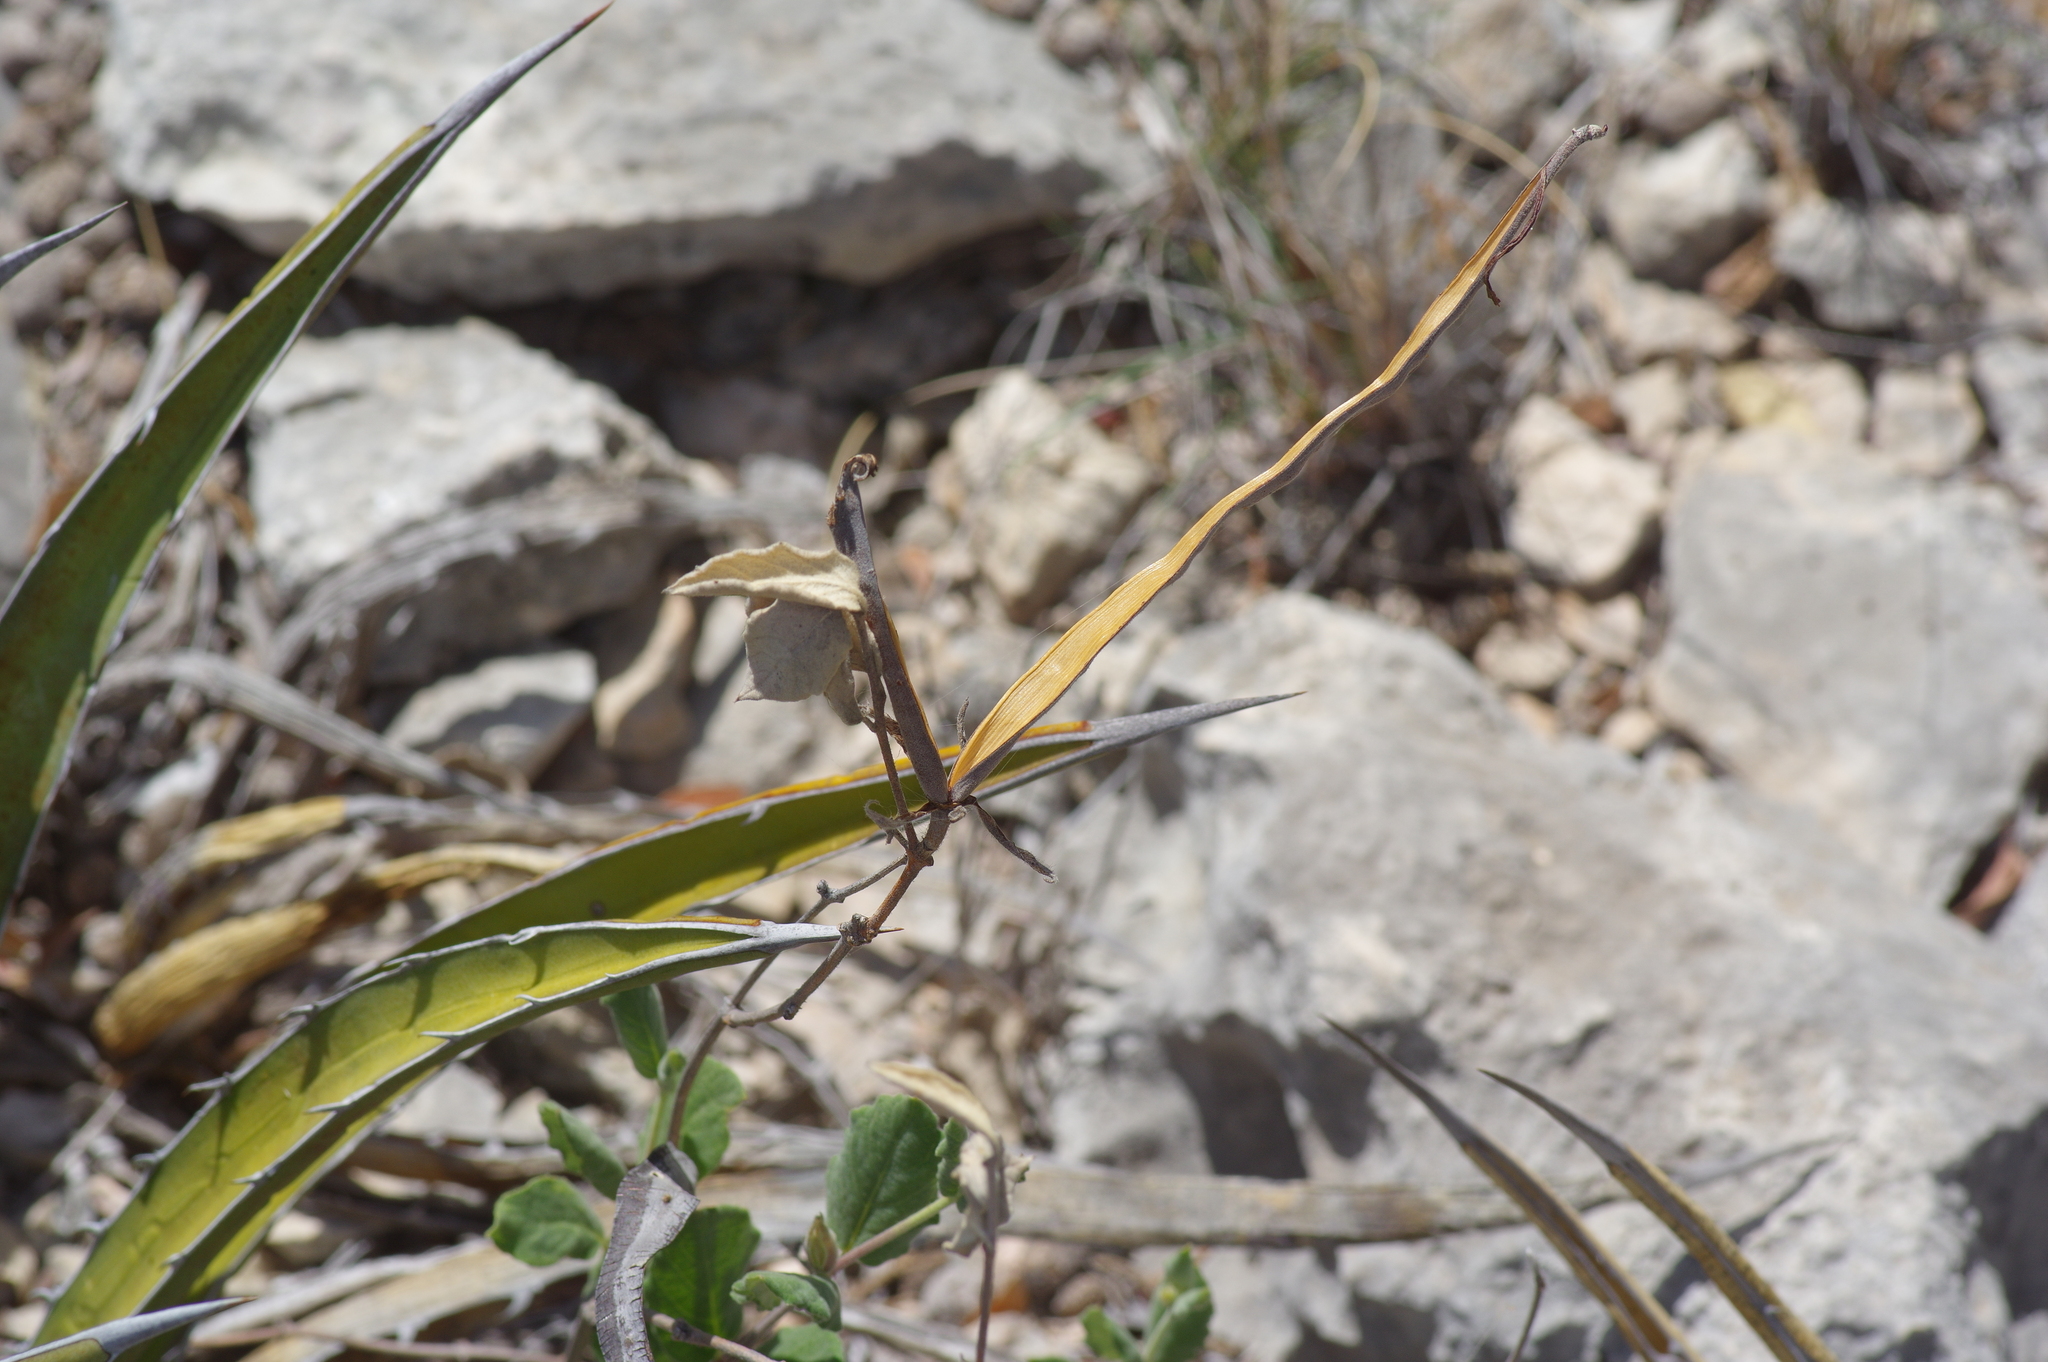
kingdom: Plantae
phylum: Tracheophyta
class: Magnoliopsida
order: Gentianales
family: Apocynaceae
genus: Mandevilla
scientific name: Mandevilla macrosiphon
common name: Plateau rocktrumpet
